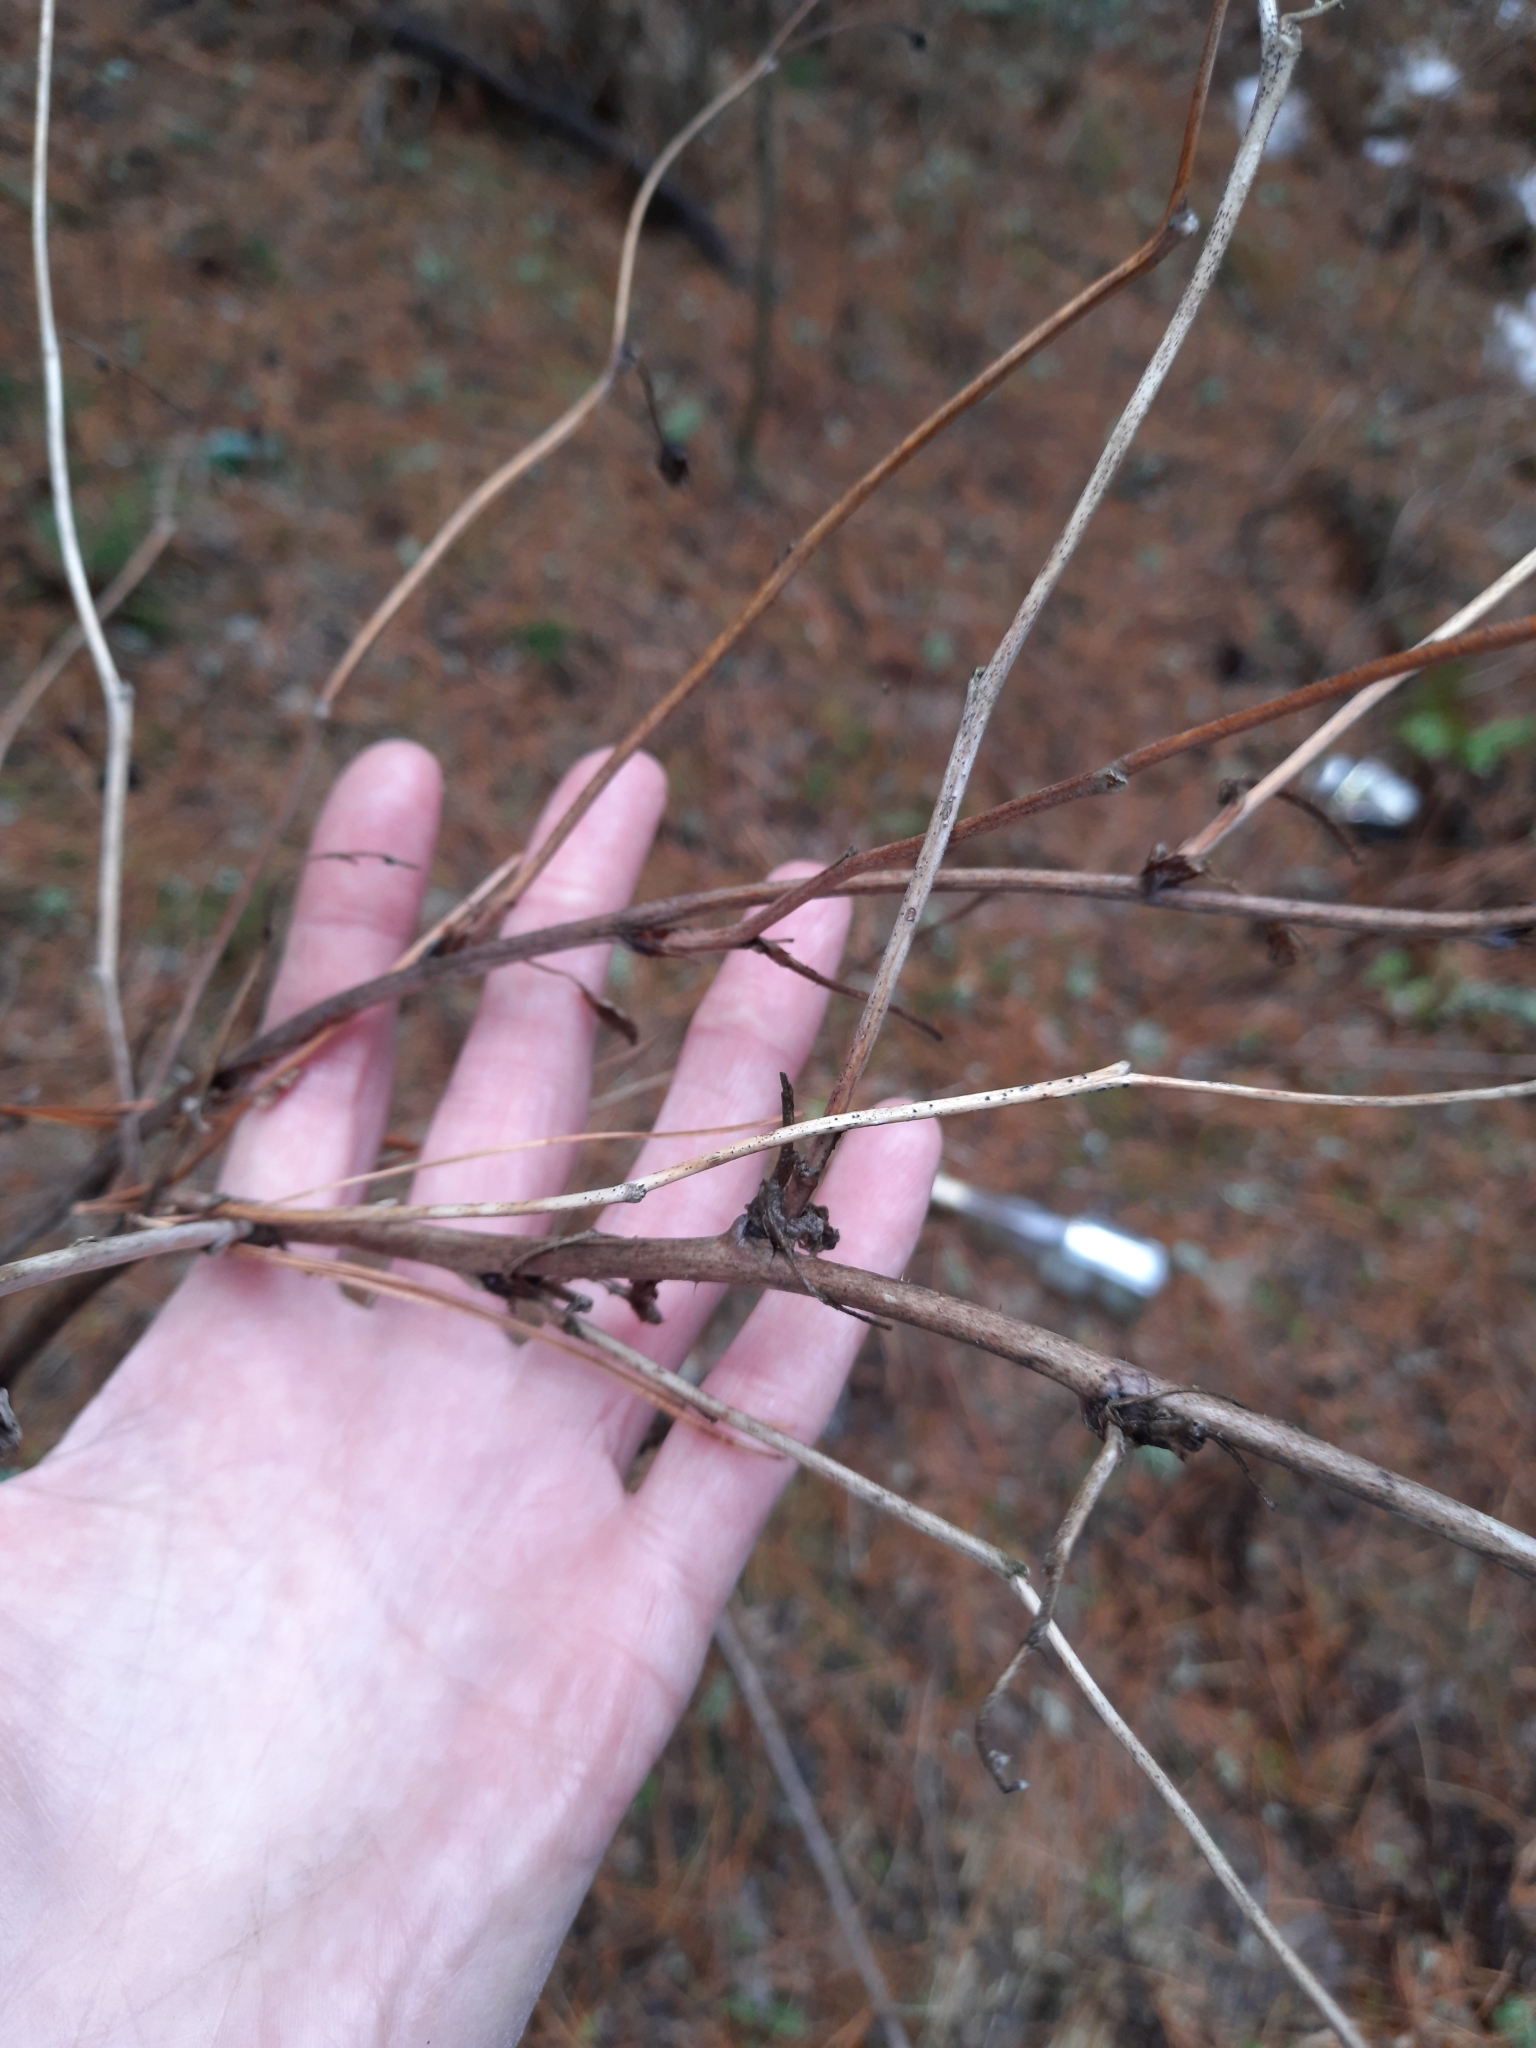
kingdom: Plantae
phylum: Tracheophyta
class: Magnoliopsida
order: Rosales
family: Rosaceae
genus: Rubus
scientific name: Rubus idaeus
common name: Raspberry
